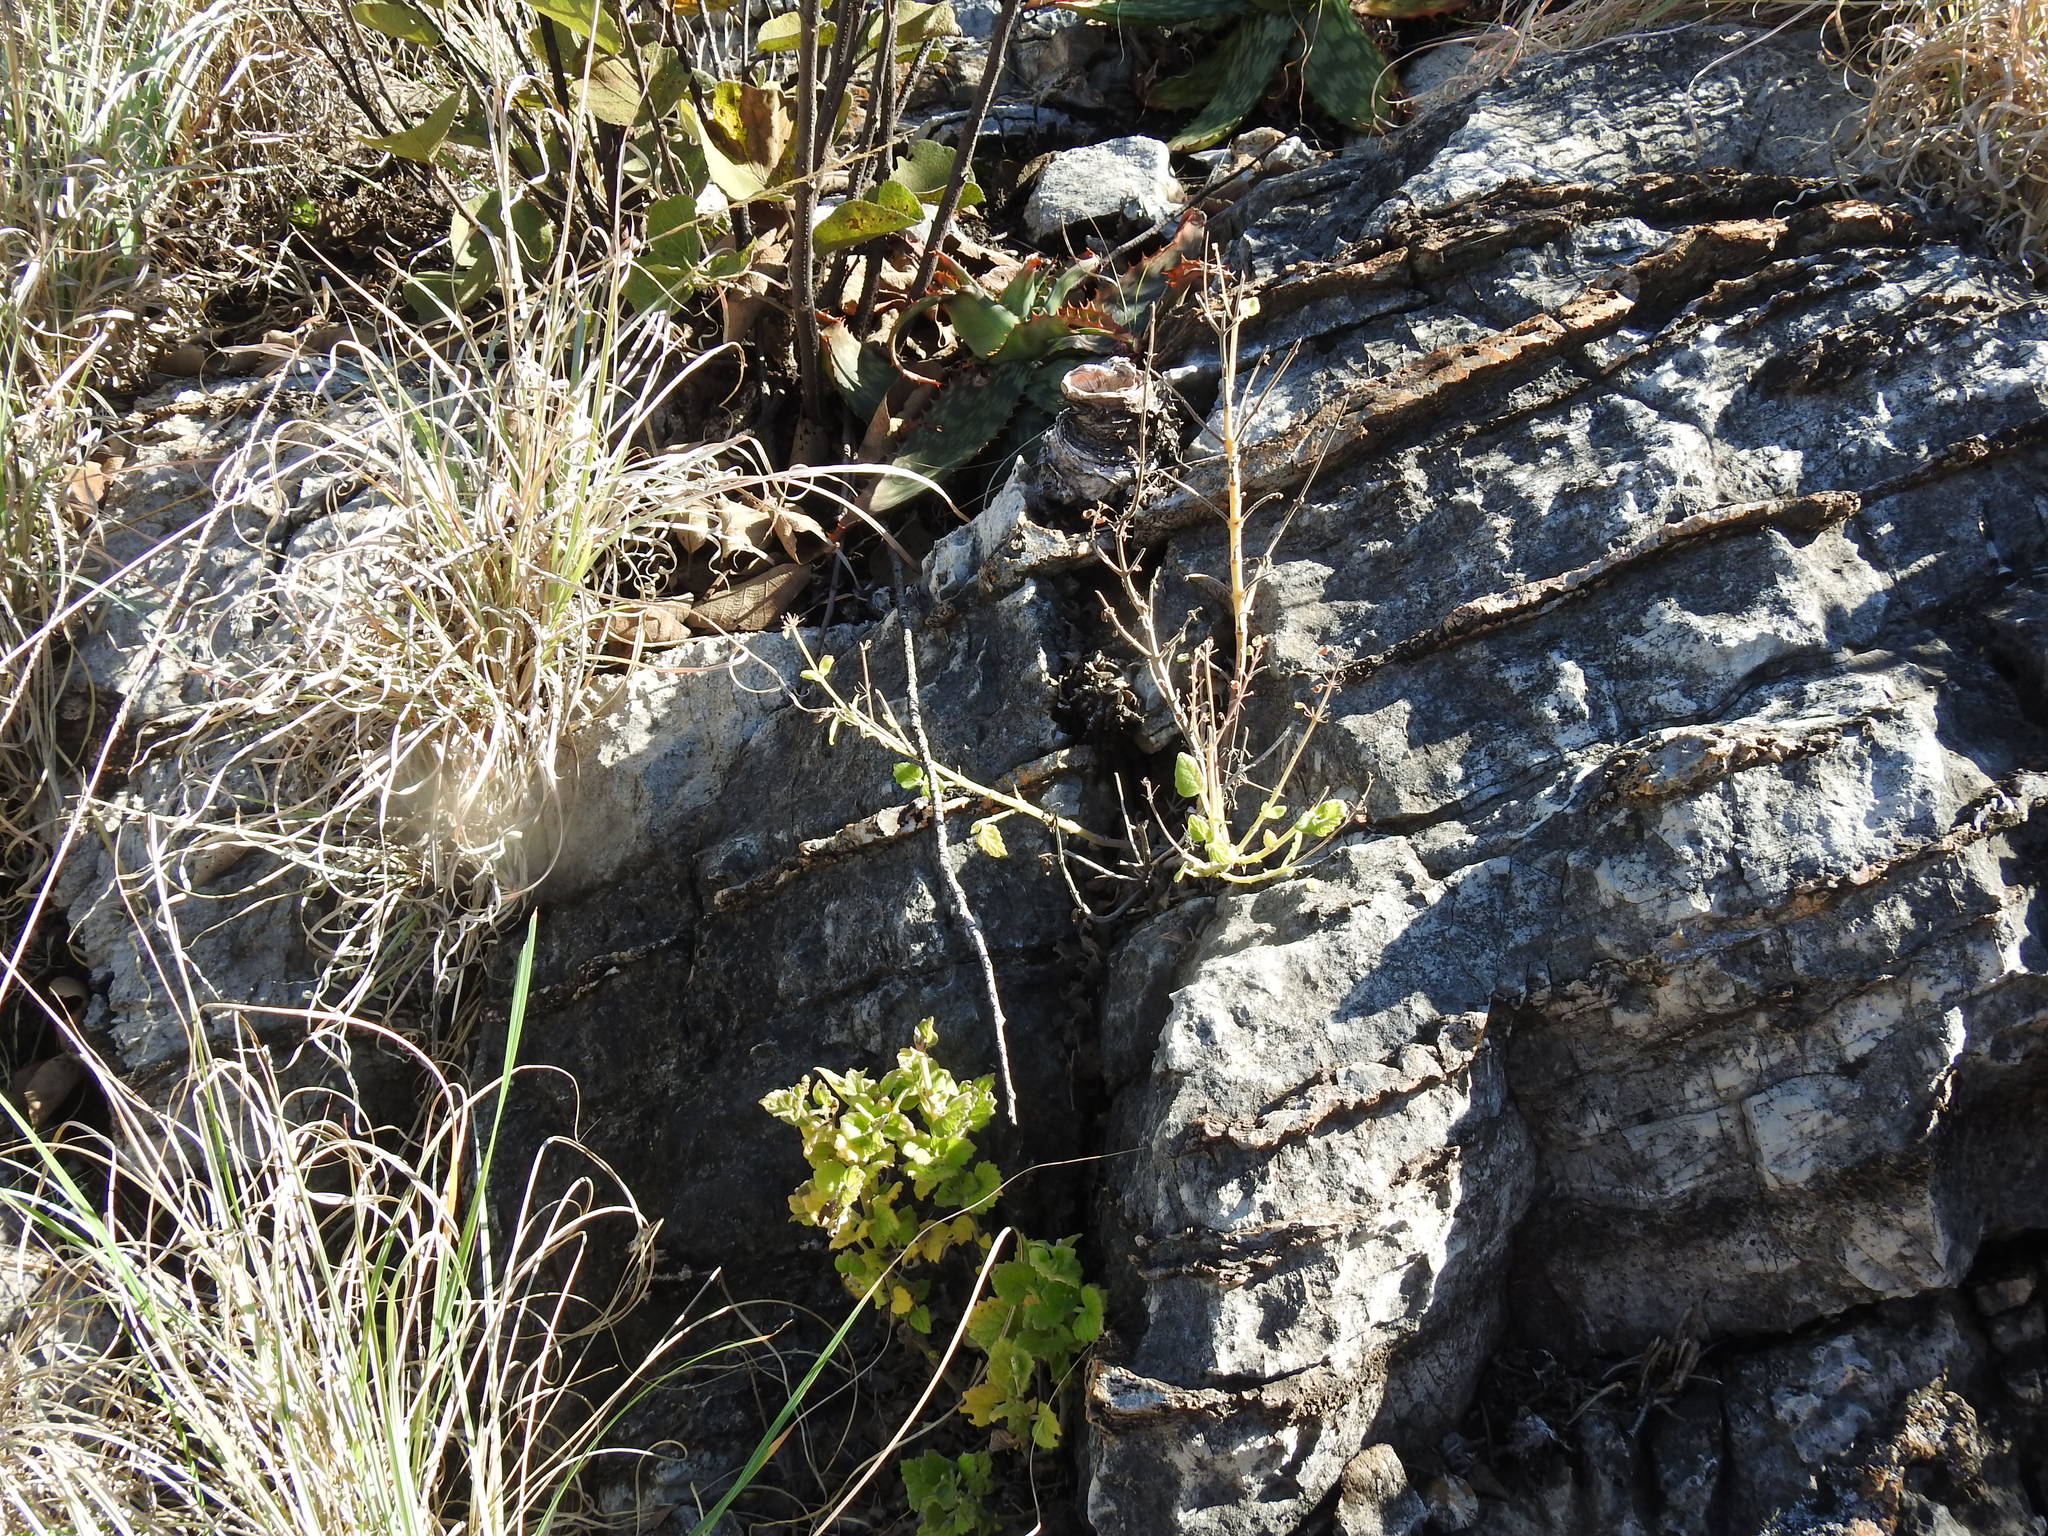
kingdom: Plantae
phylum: Tracheophyta
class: Magnoliopsida
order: Lamiales
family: Lamiaceae
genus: Coleus
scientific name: Coleus hadiensis
